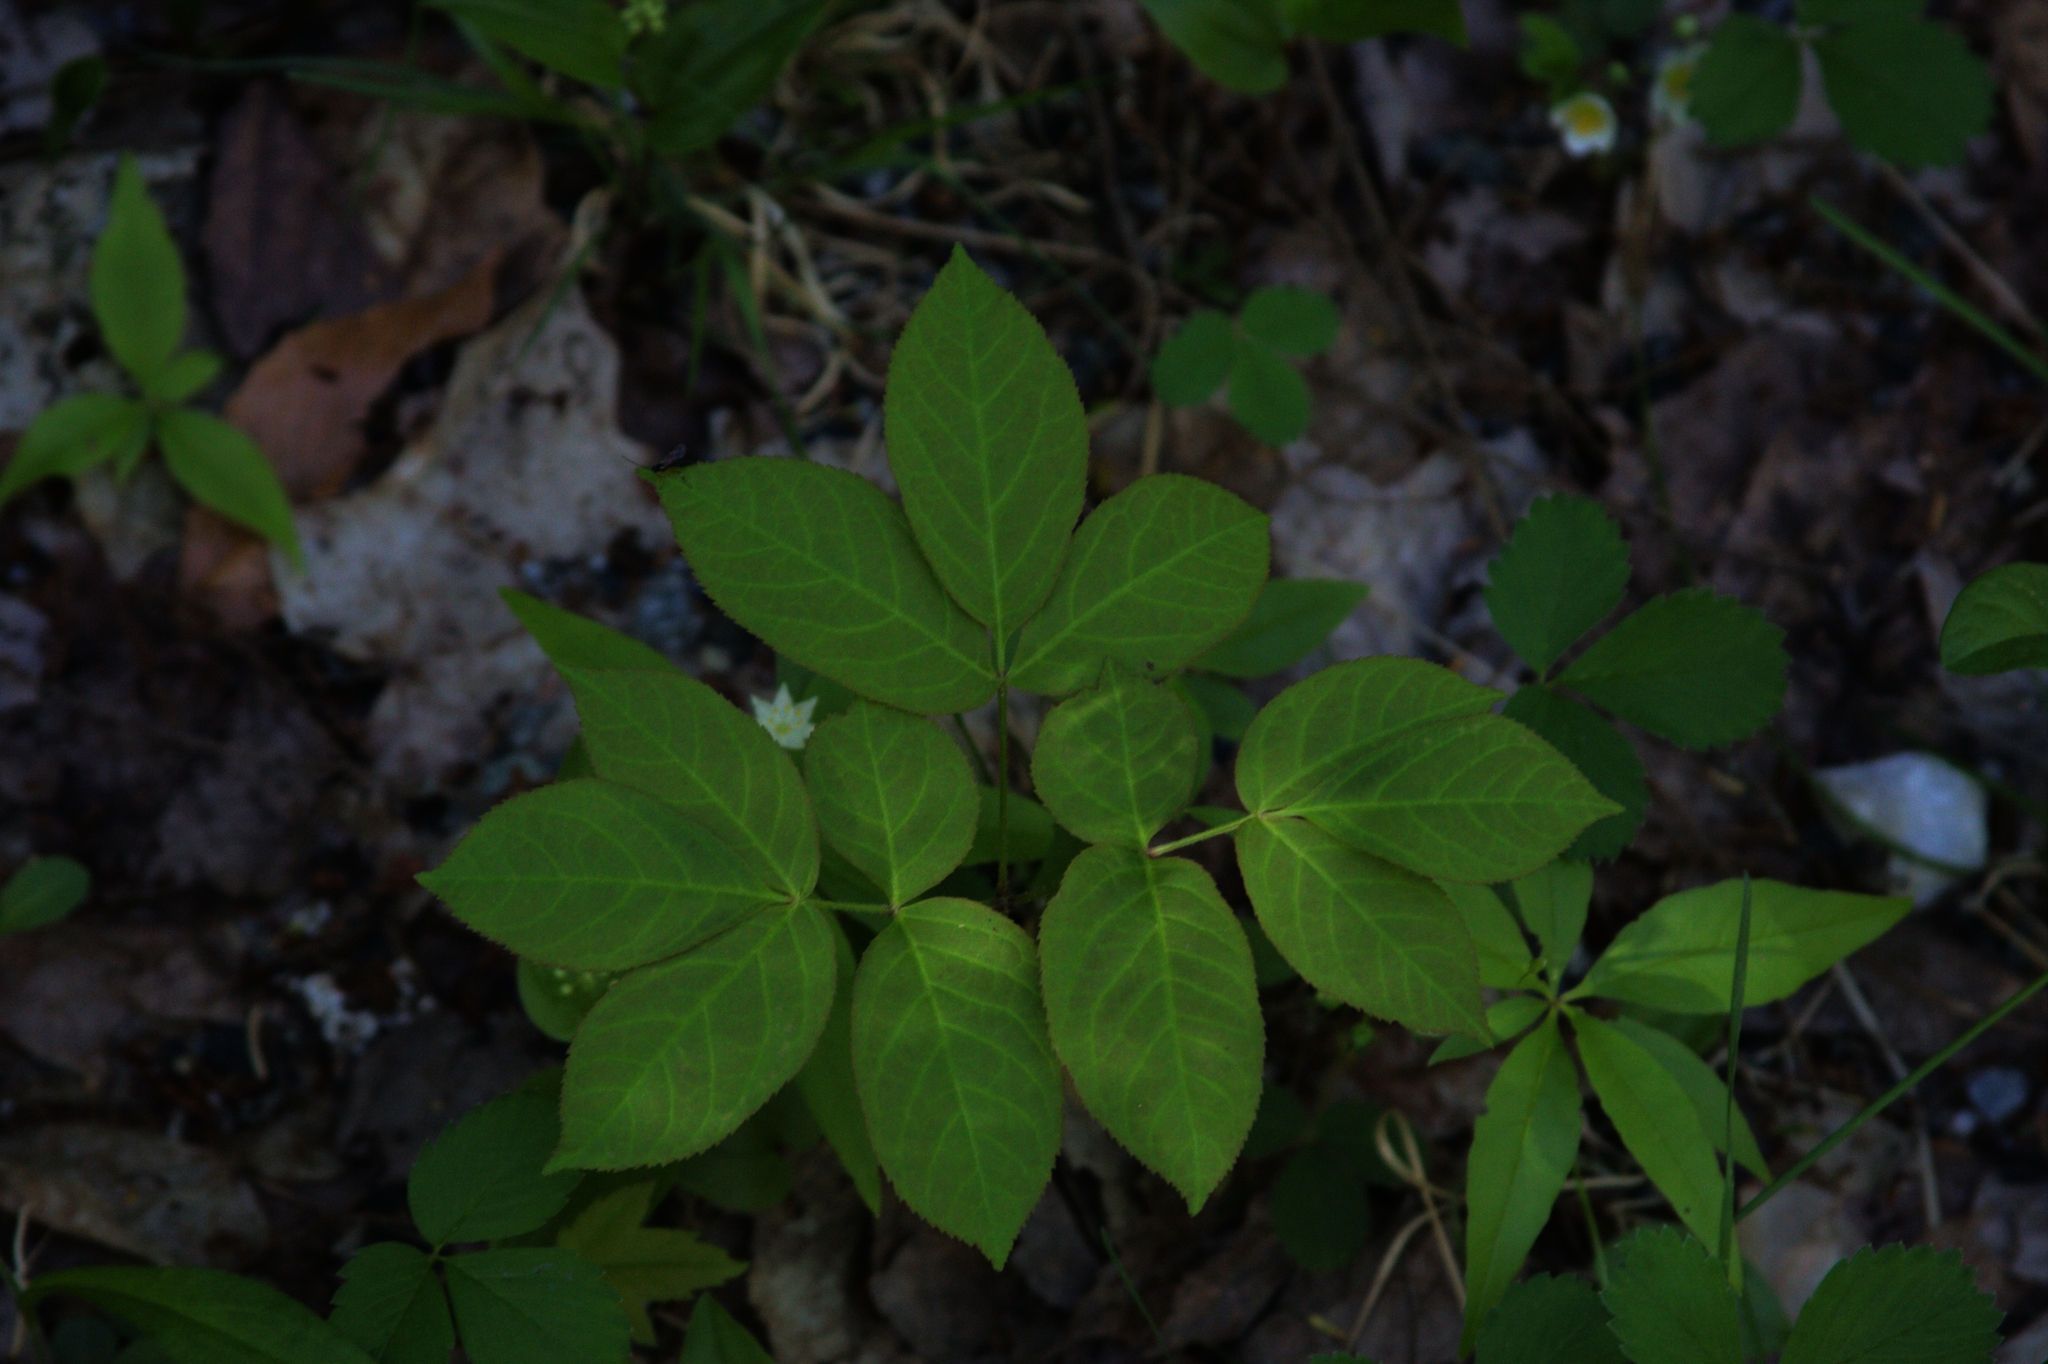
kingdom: Plantae
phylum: Tracheophyta
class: Magnoliopsida
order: Apiales
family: Araliaceae
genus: Aralia
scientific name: Aralia nudicaulis
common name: Wild sarsaparilla
